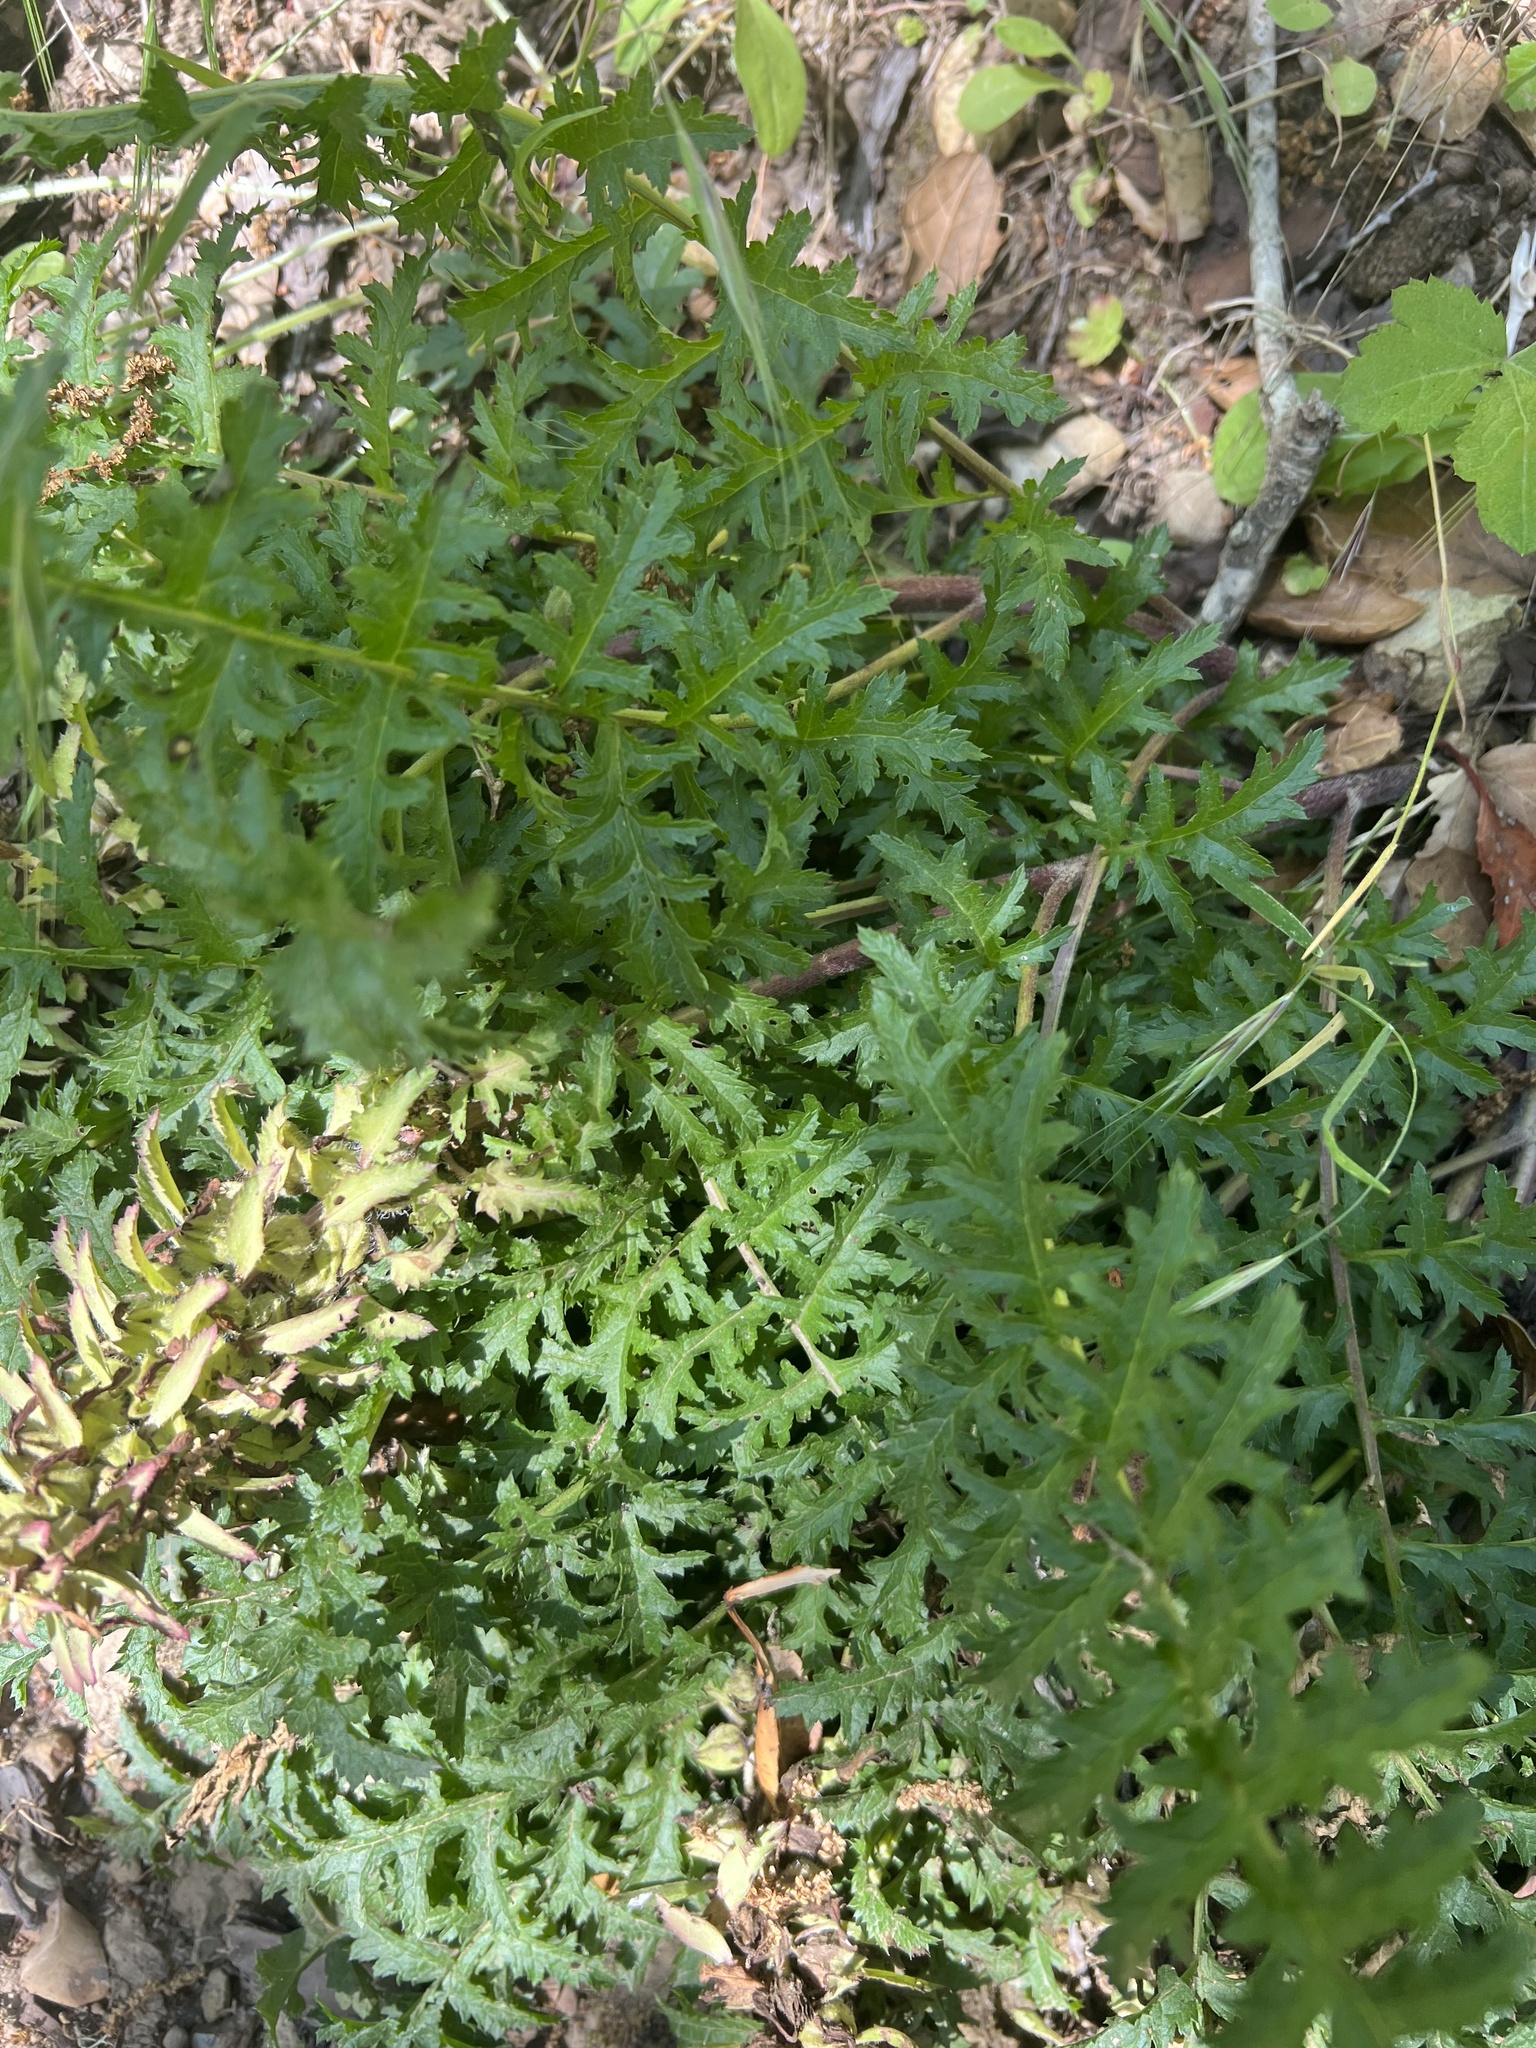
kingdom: Plantae
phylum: Tracheophyta
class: Magnoliopsida
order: Lamiales
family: Orobanchaceae
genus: Pedicularis
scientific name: Pedicularis densiflora
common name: Indian warrior
